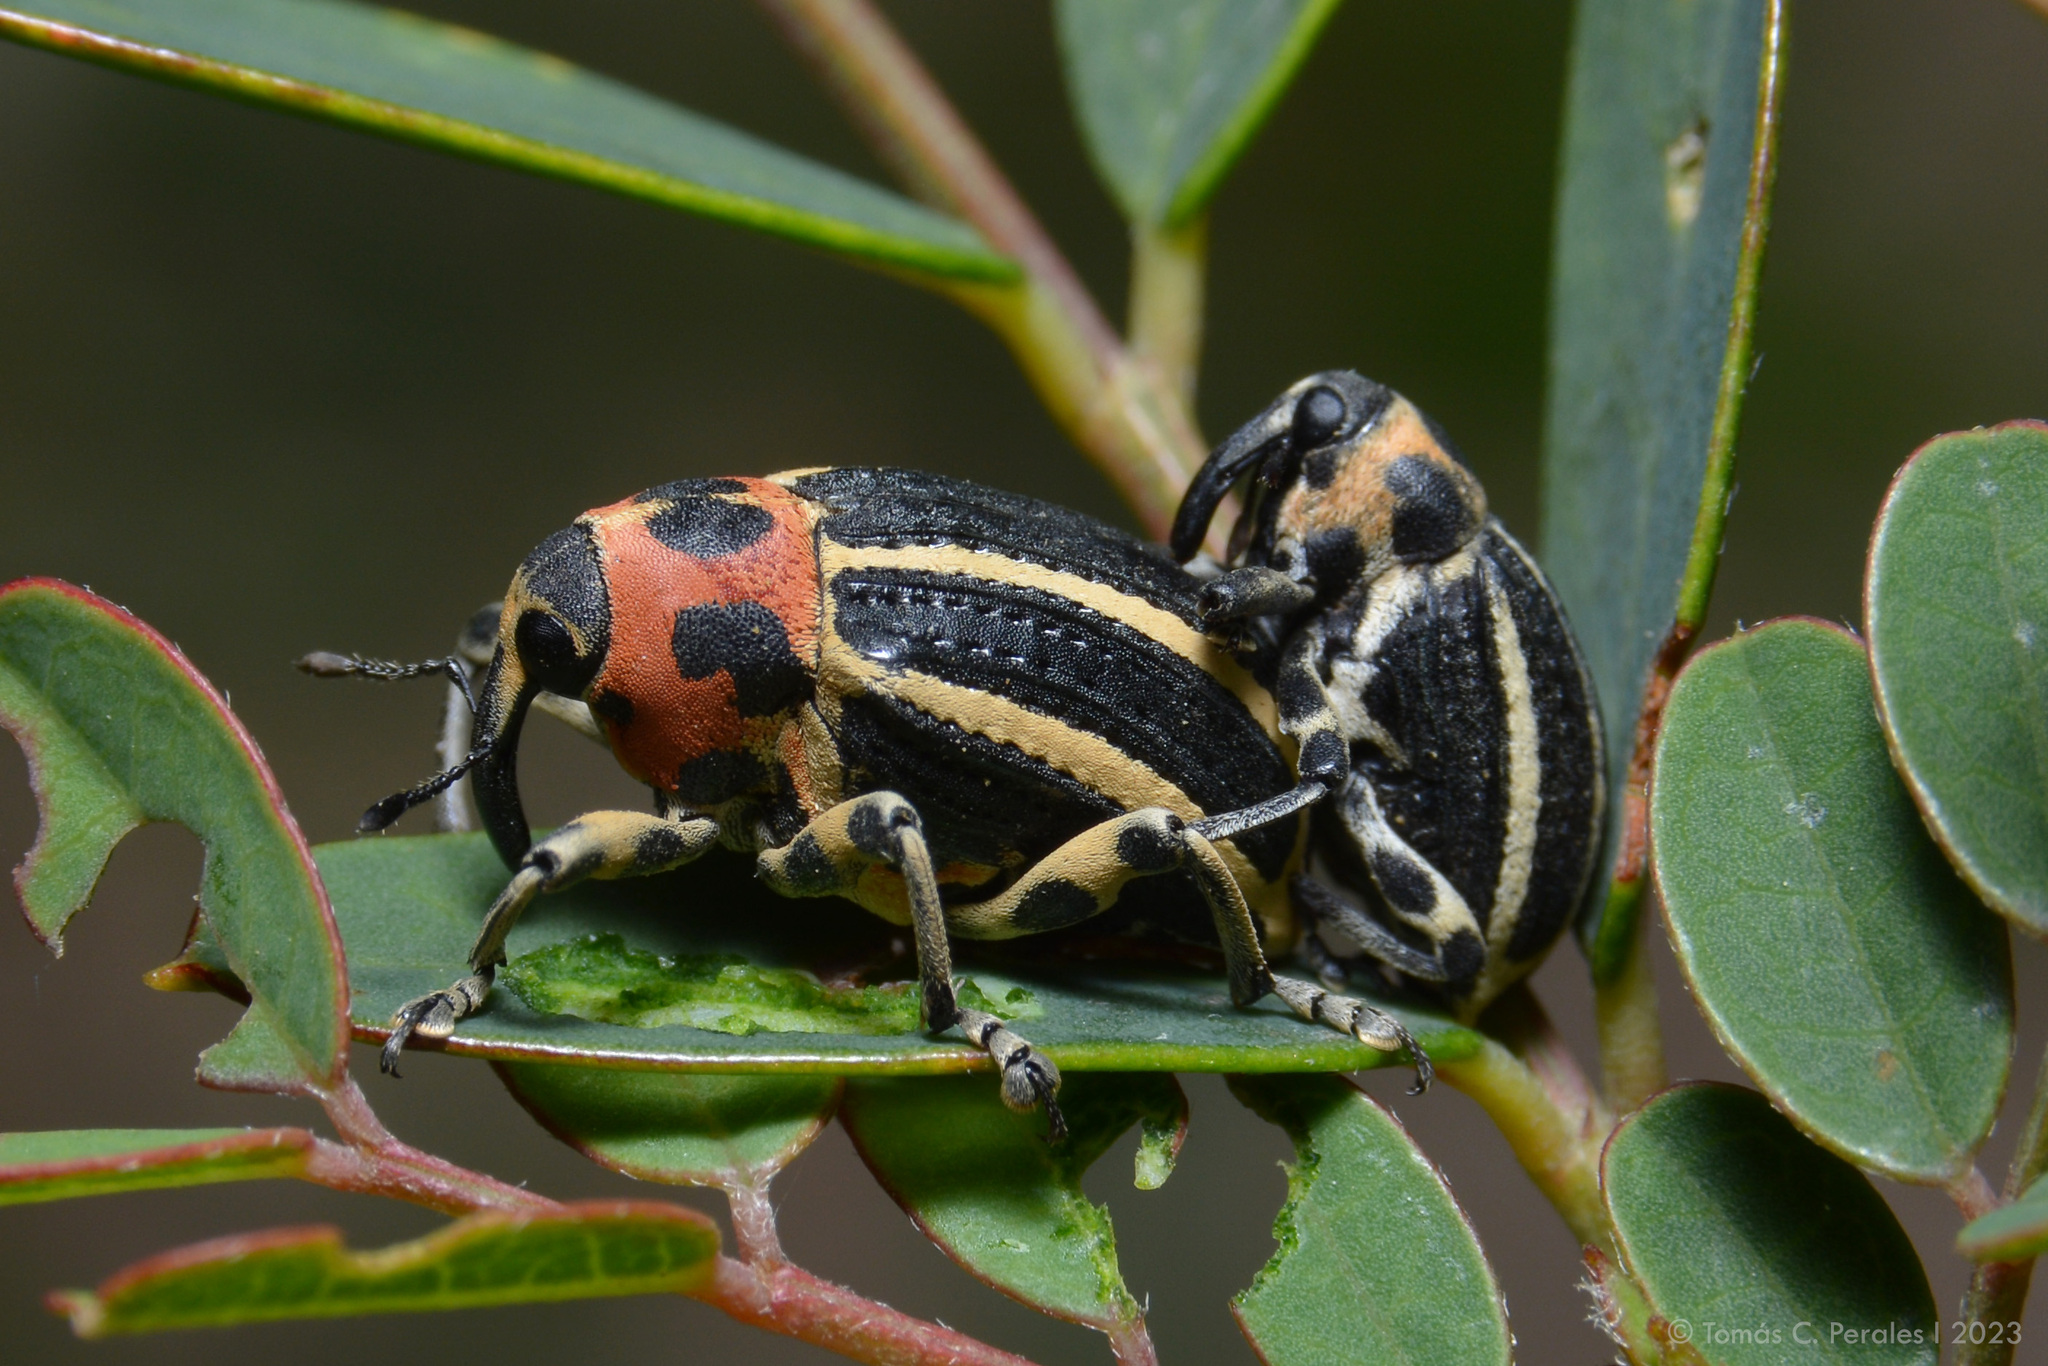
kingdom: Animalia
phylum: Arthropoda
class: Insecta
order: Coleoptera
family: Curculionidae
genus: Neodiplogrammus
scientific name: Neodiplogrammus
